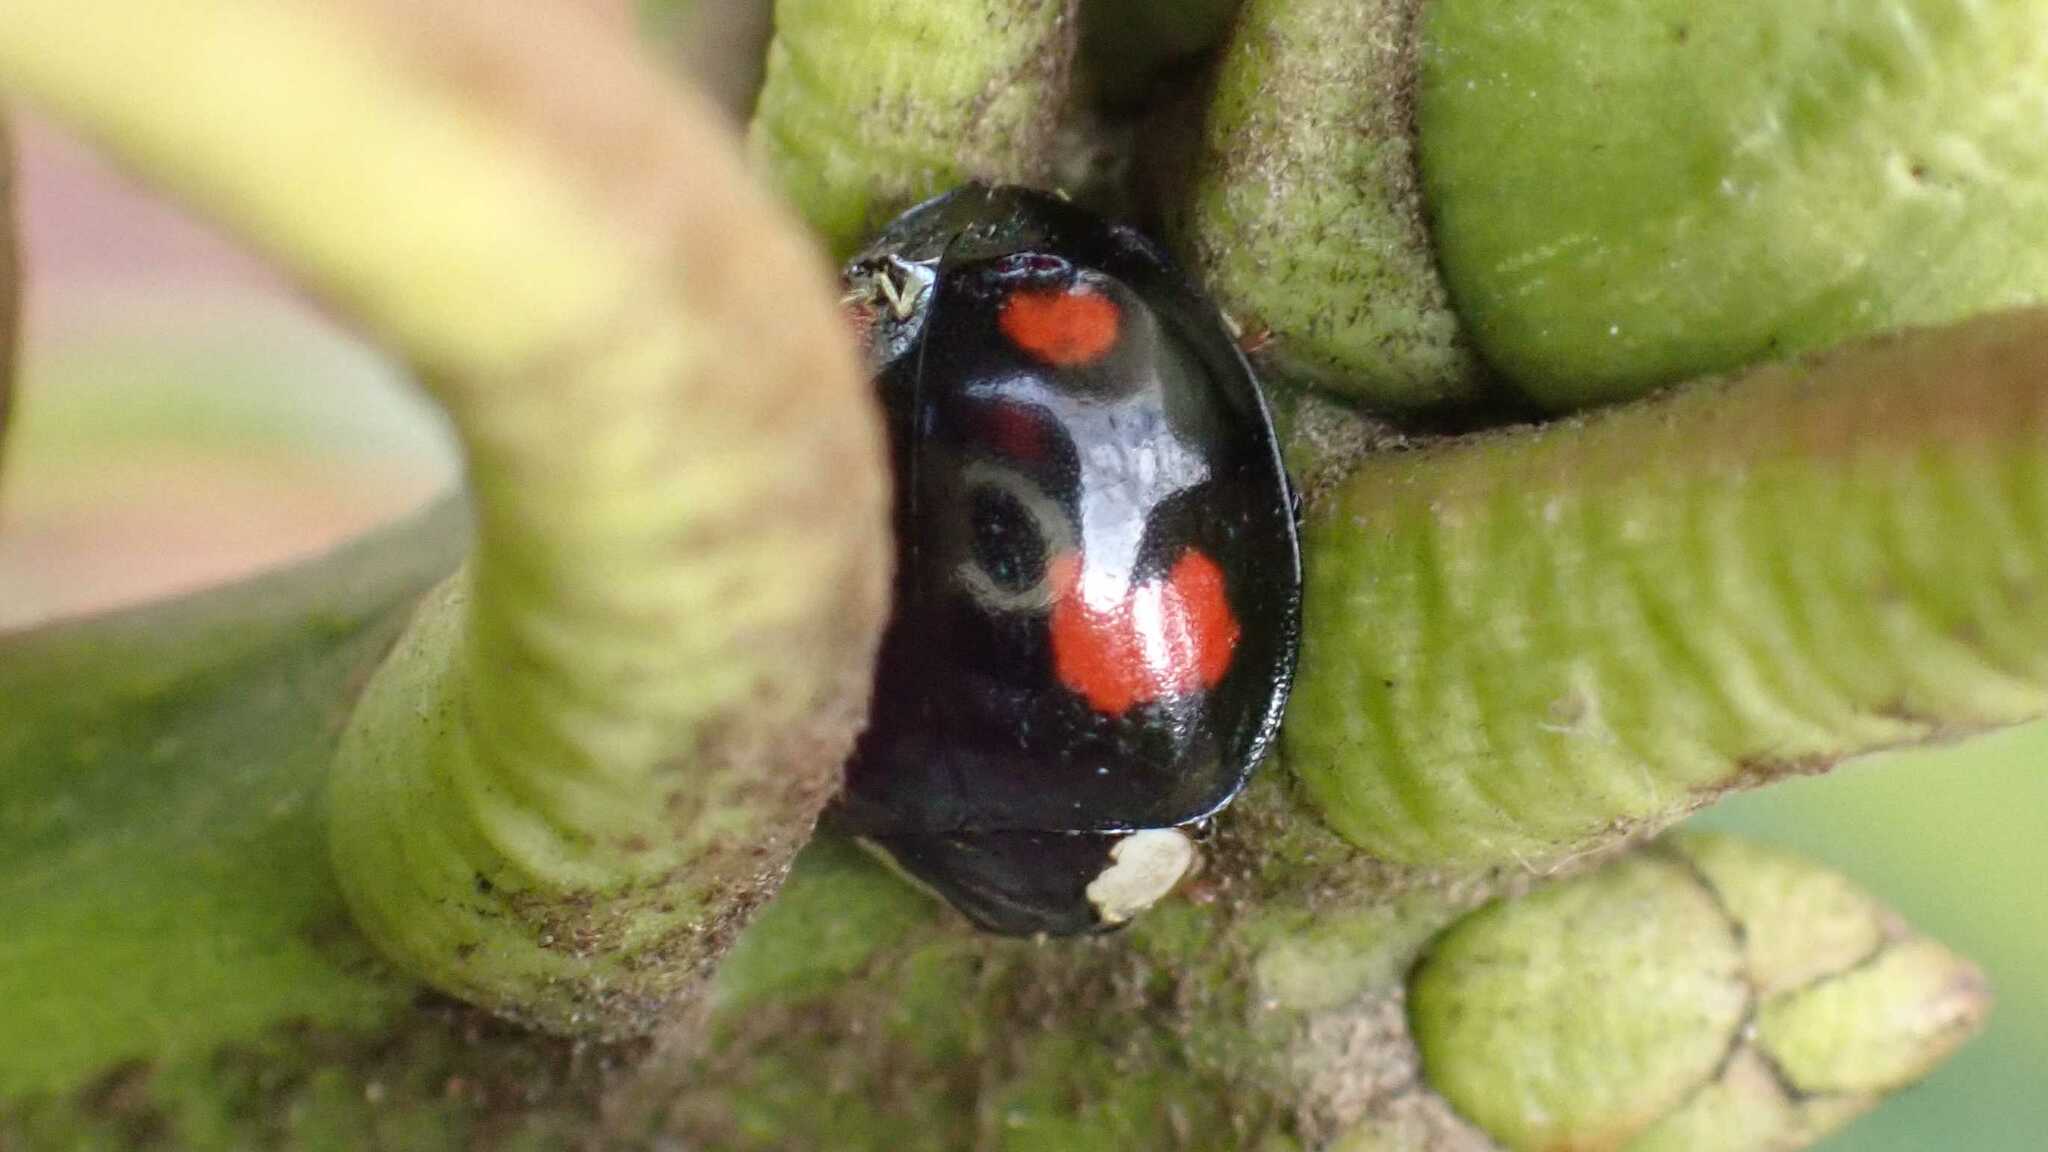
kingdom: Fungi
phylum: Ascomycota
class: Laboulbeniomycetes
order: Laboulbeniales
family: Laboulbeniaceae
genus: Hesperomyces
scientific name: Hesperomyces harmoniae
